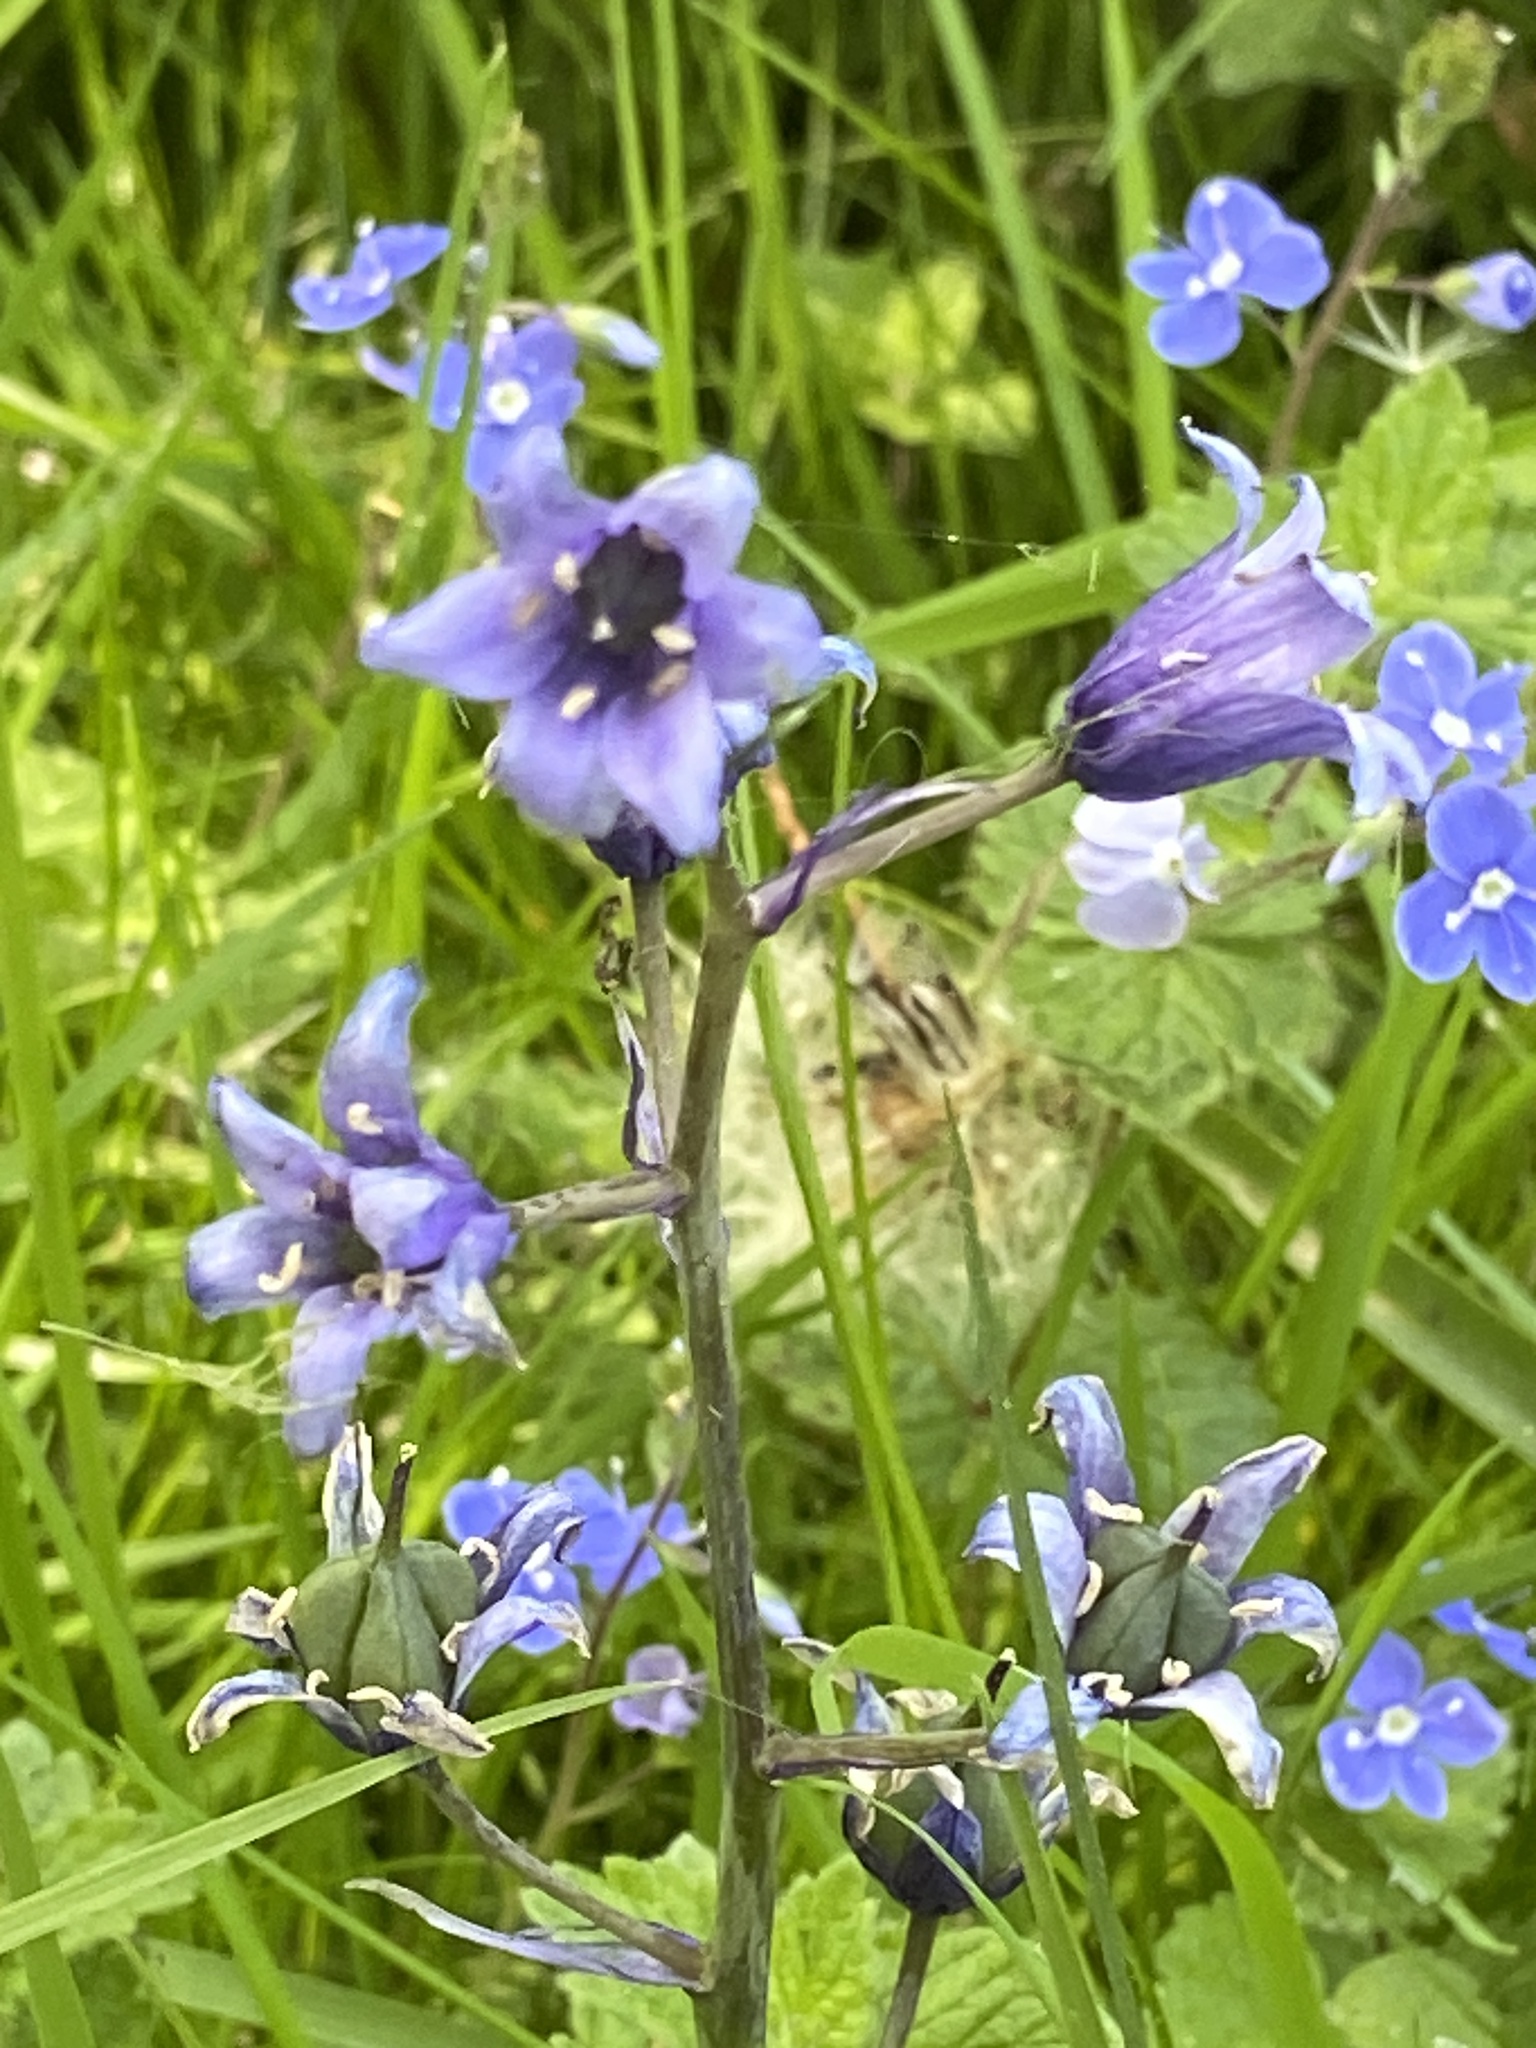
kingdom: Plantae
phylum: Tracheophyta
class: Liliopsida
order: Asparagales
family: Asparagaceae
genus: Hyacinthoides
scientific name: Hyacinthoides hispanica
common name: Spanish bluebell
